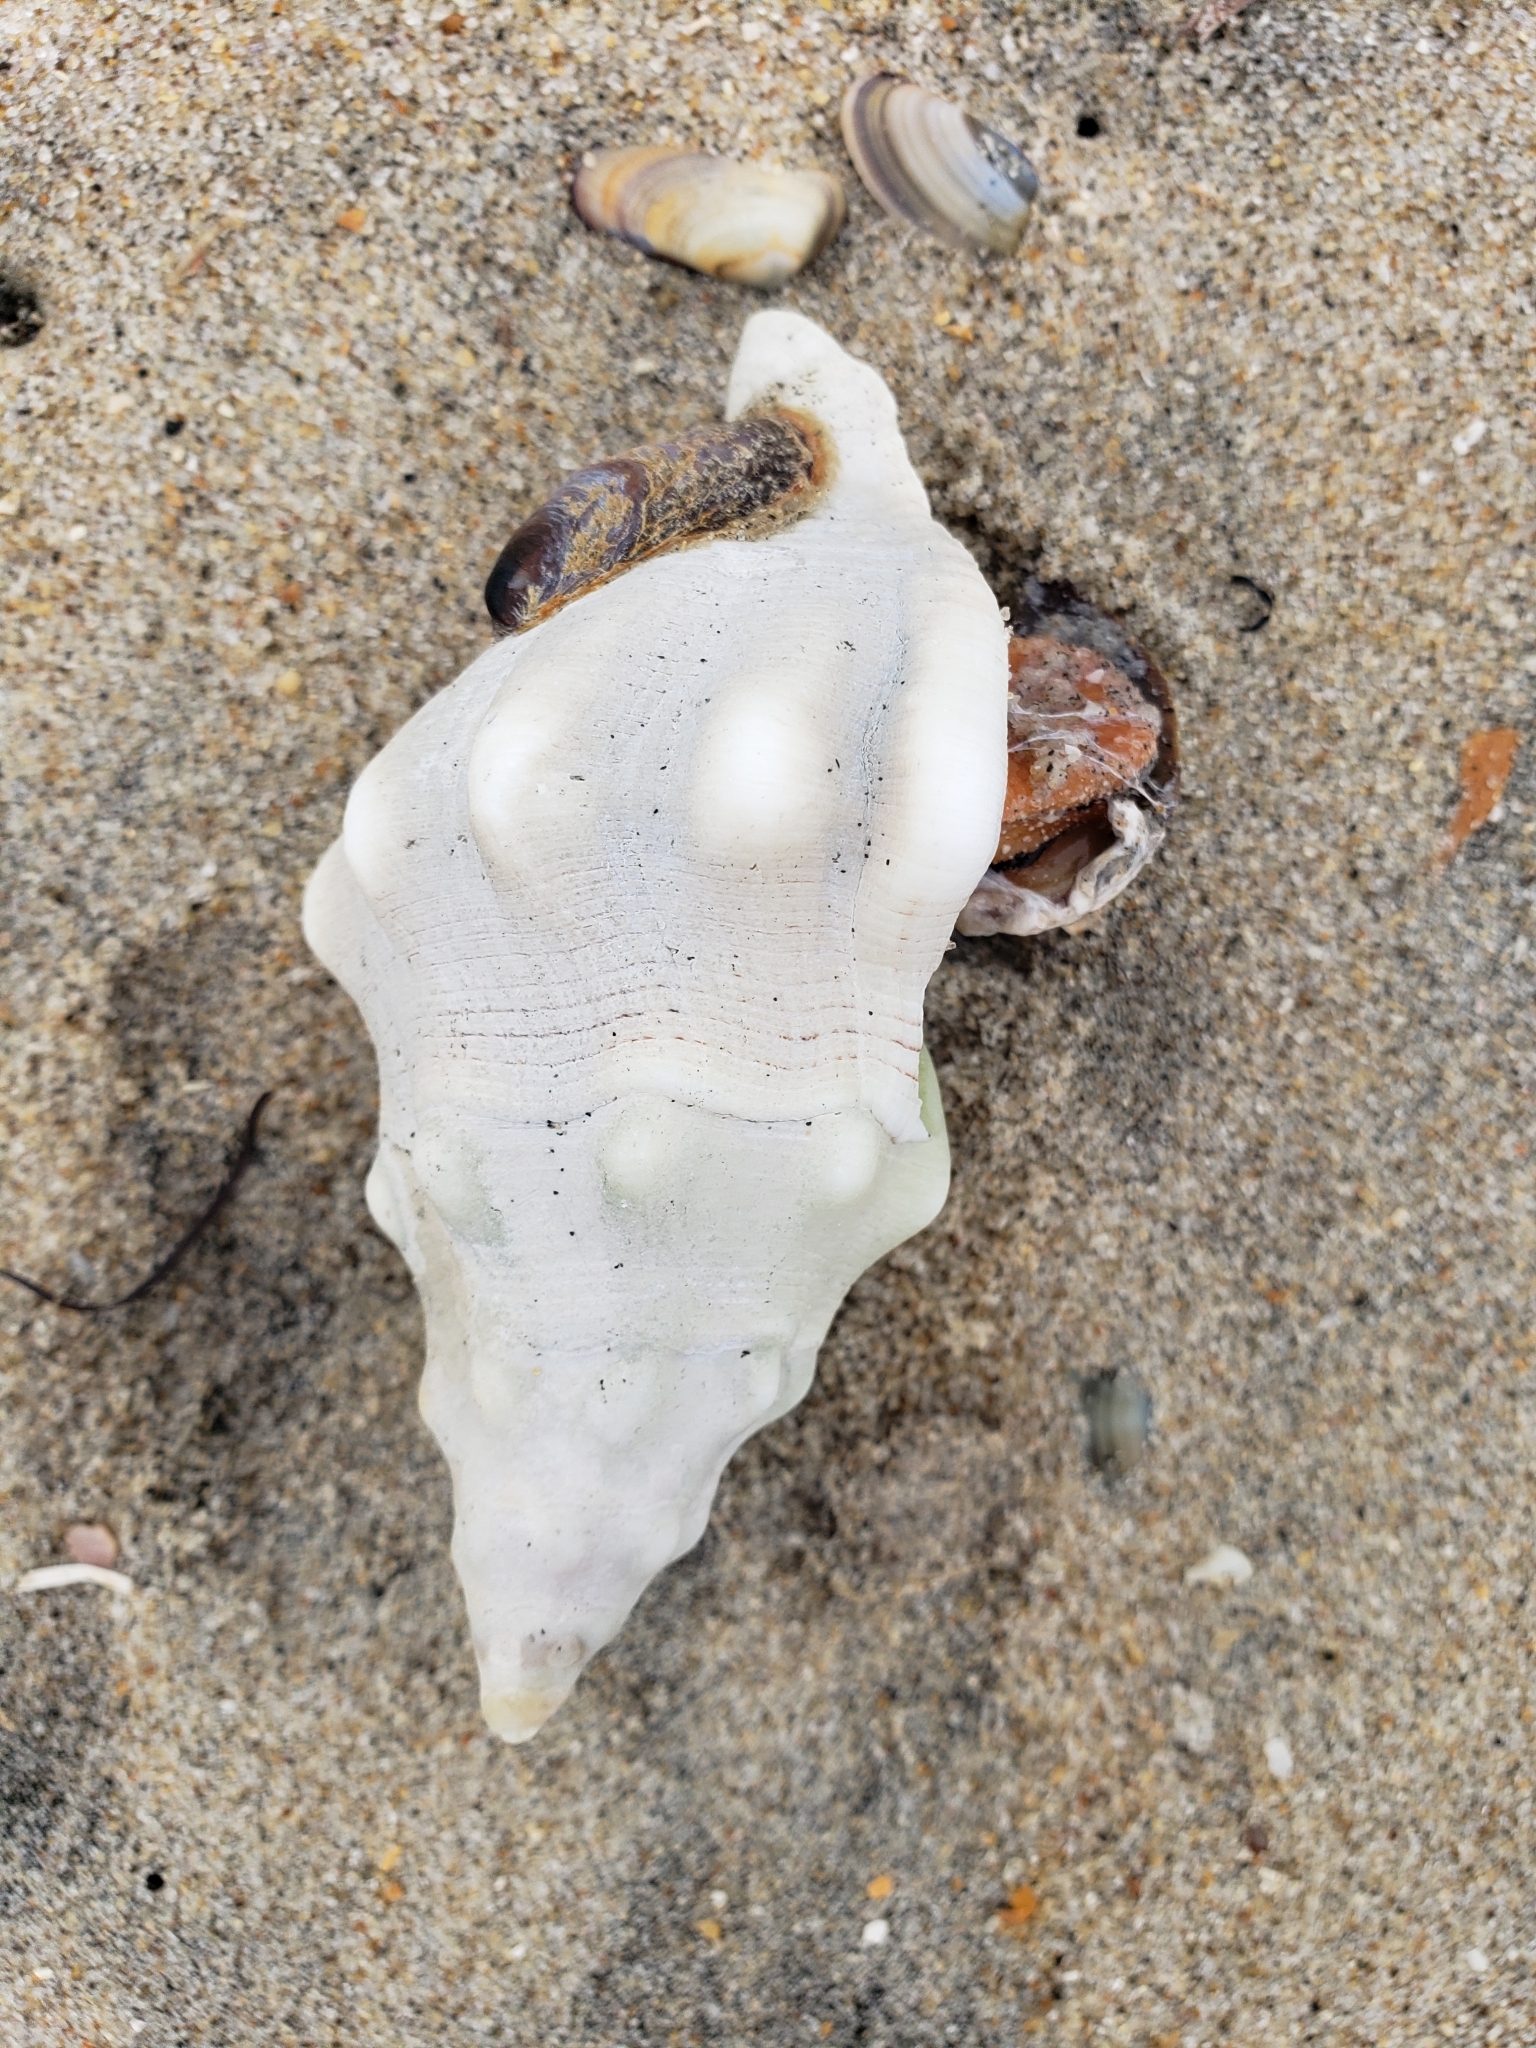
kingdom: Animalia
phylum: Mollusca
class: Gastropoda
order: Neogastropoda
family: Austrosiphonidae
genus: Kelletia
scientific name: Kelletia kelletii
